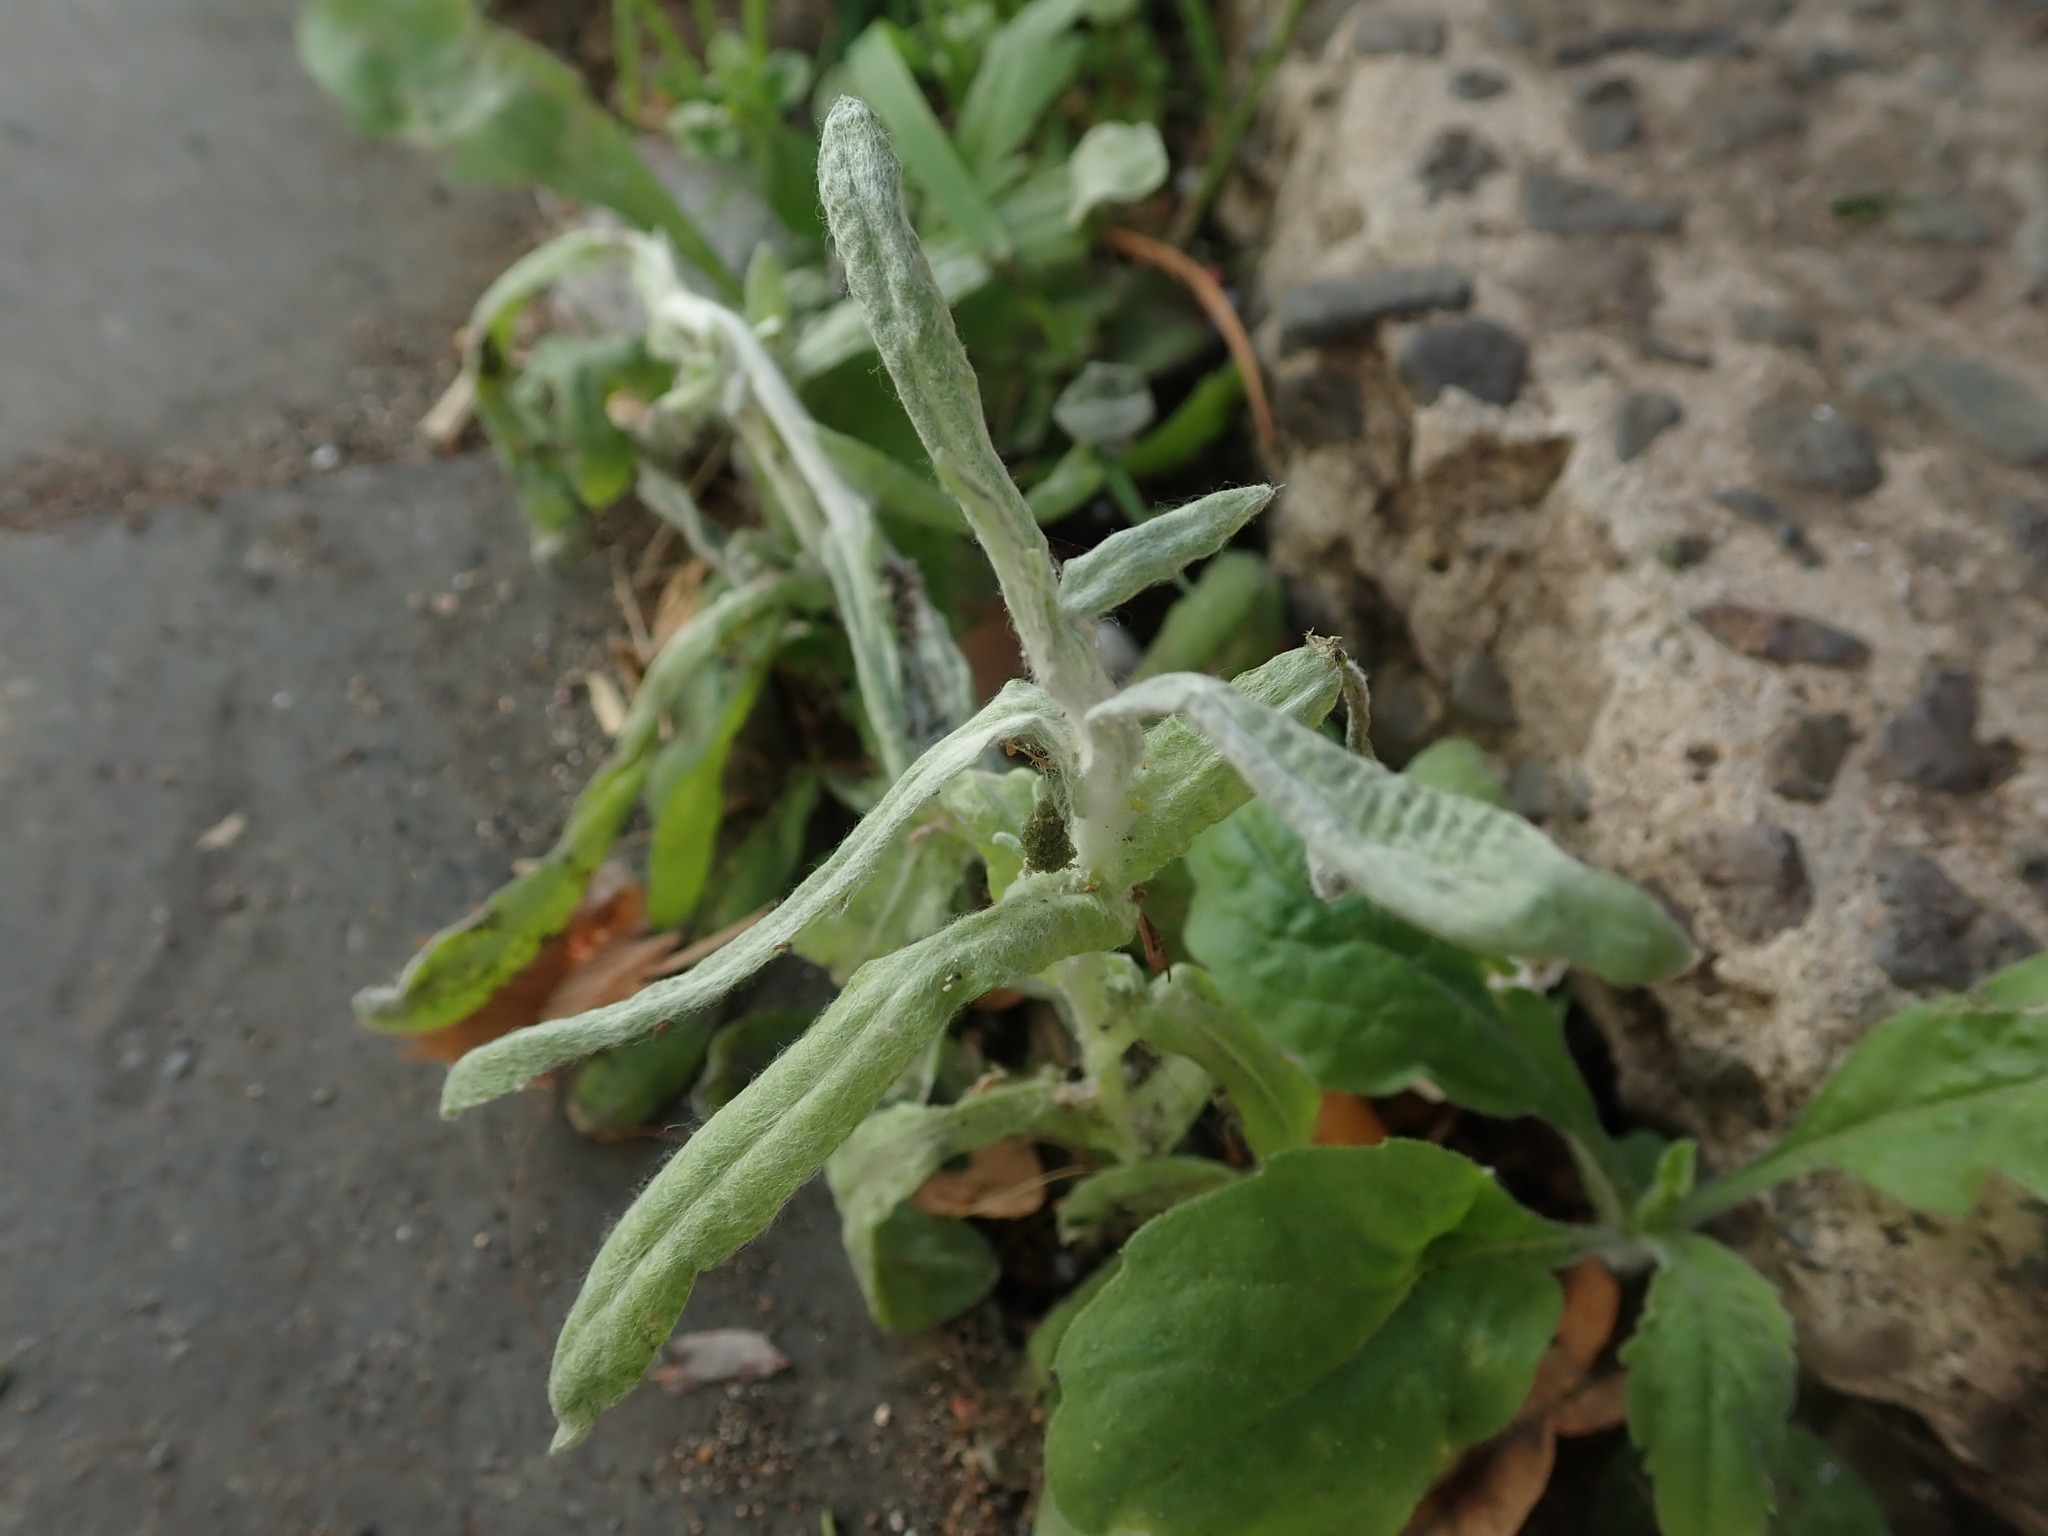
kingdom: Plantae
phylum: Tracheophyta
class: Magnoliopsida
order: Asterales
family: Asteraceae
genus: Helichrysum
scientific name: Helichrysum luteoalbum
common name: Daisy
